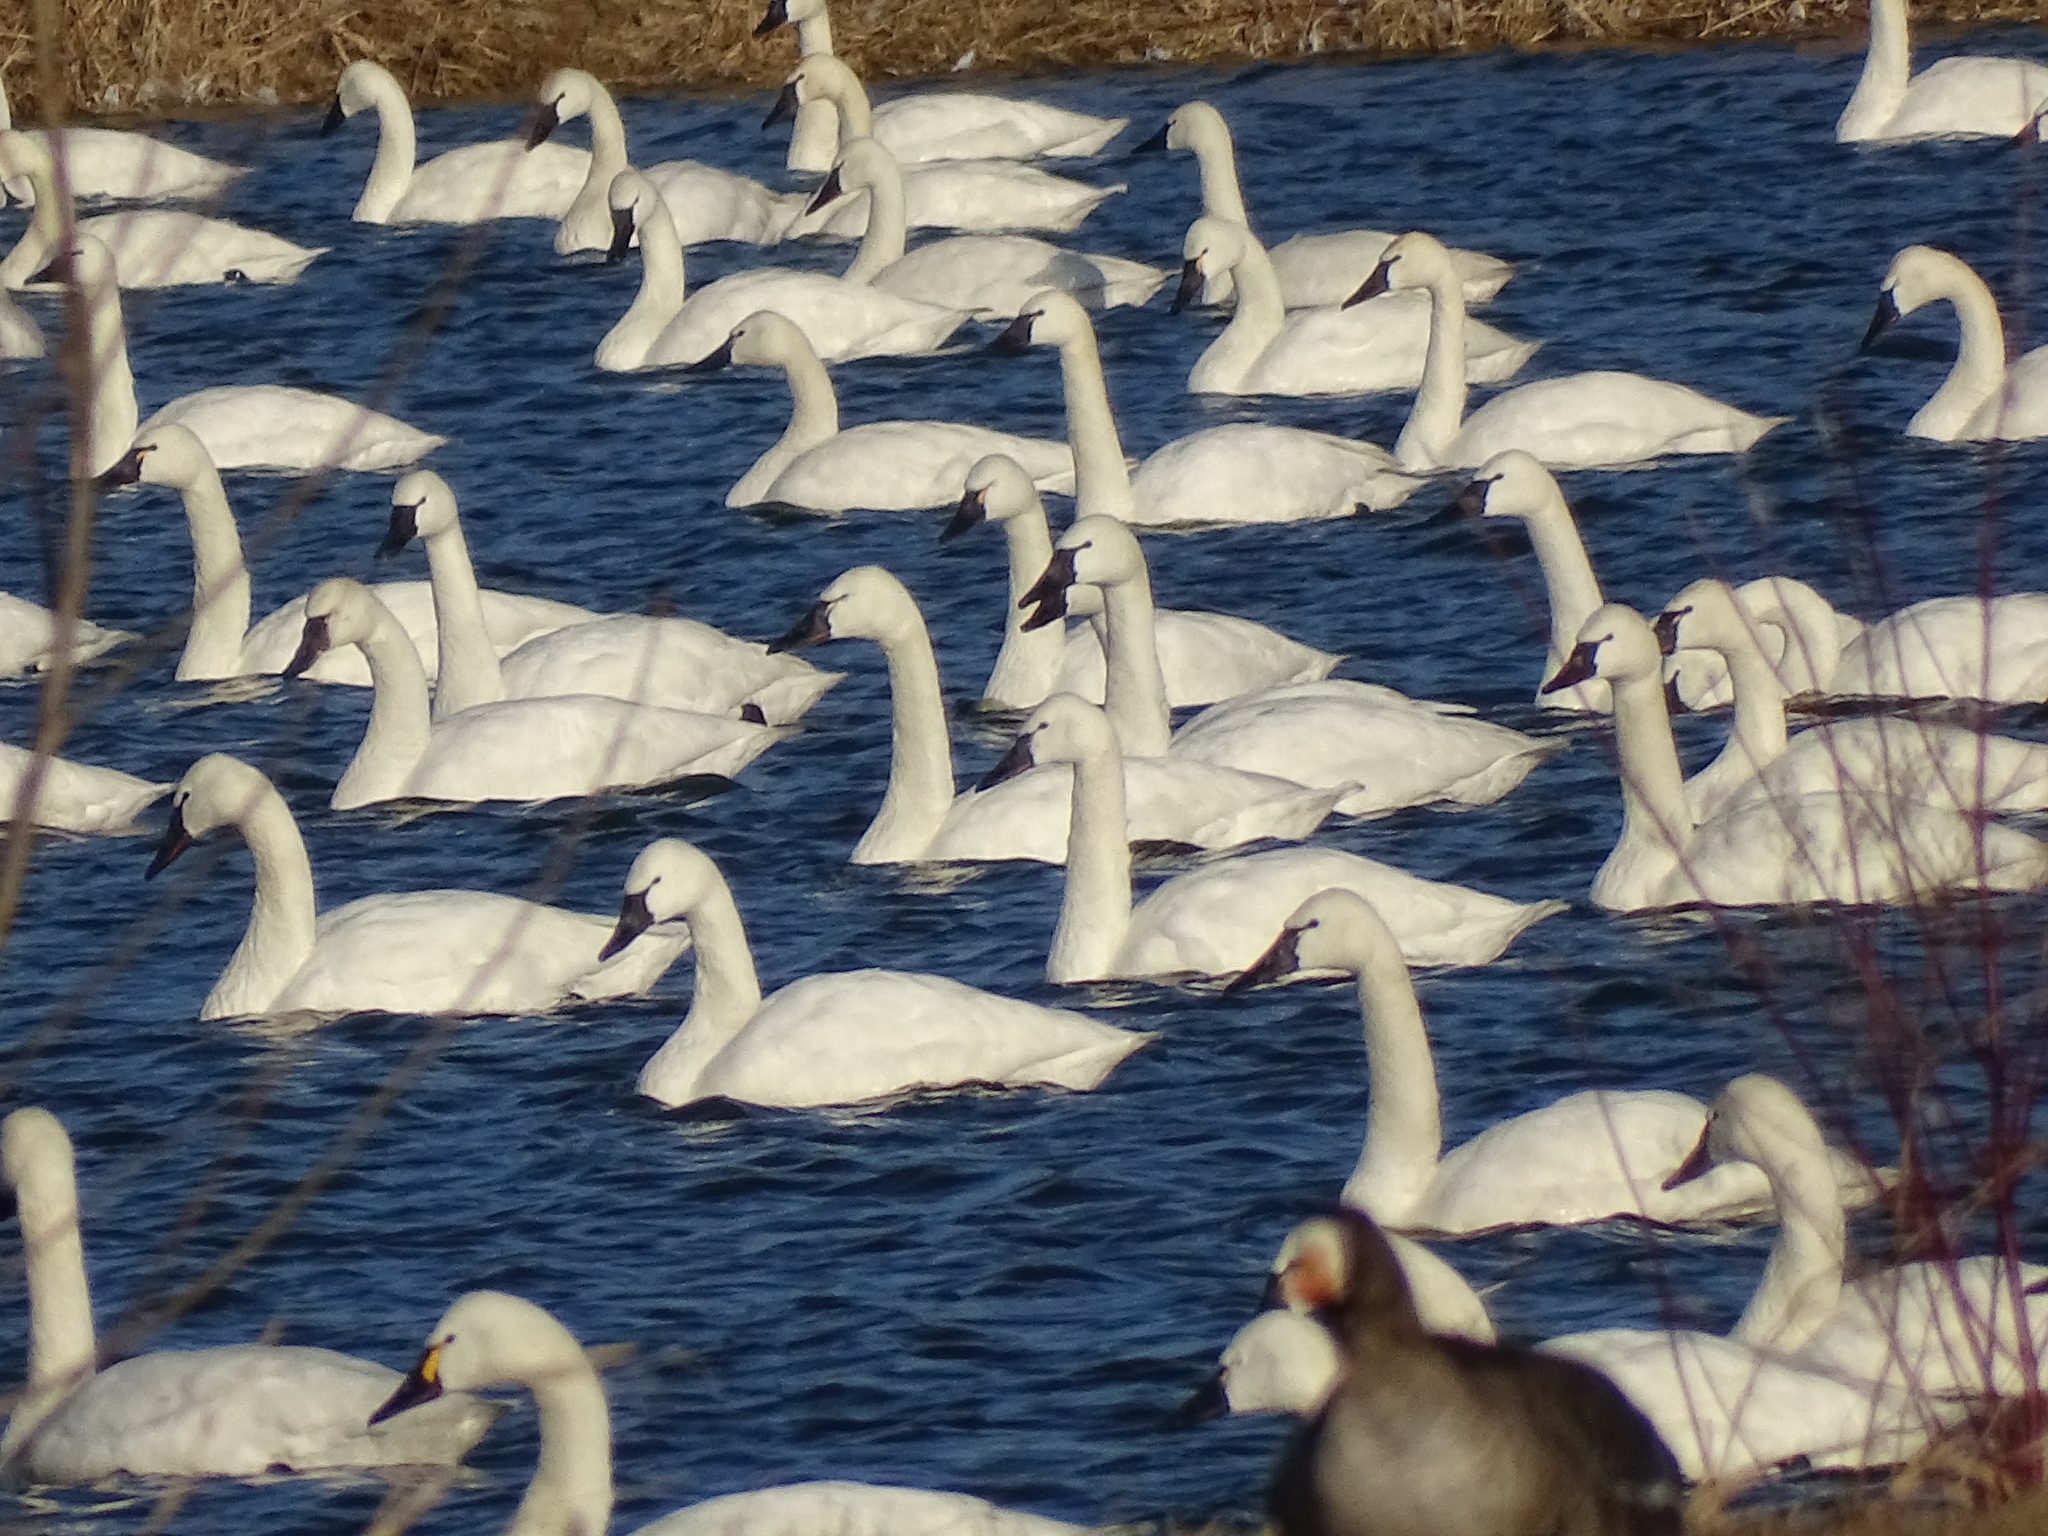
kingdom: Animalia
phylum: Chordata
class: Aves
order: Anseriformes
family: Anatidae
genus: Cygnus
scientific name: Cygnus columbianus
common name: Tundra swan
